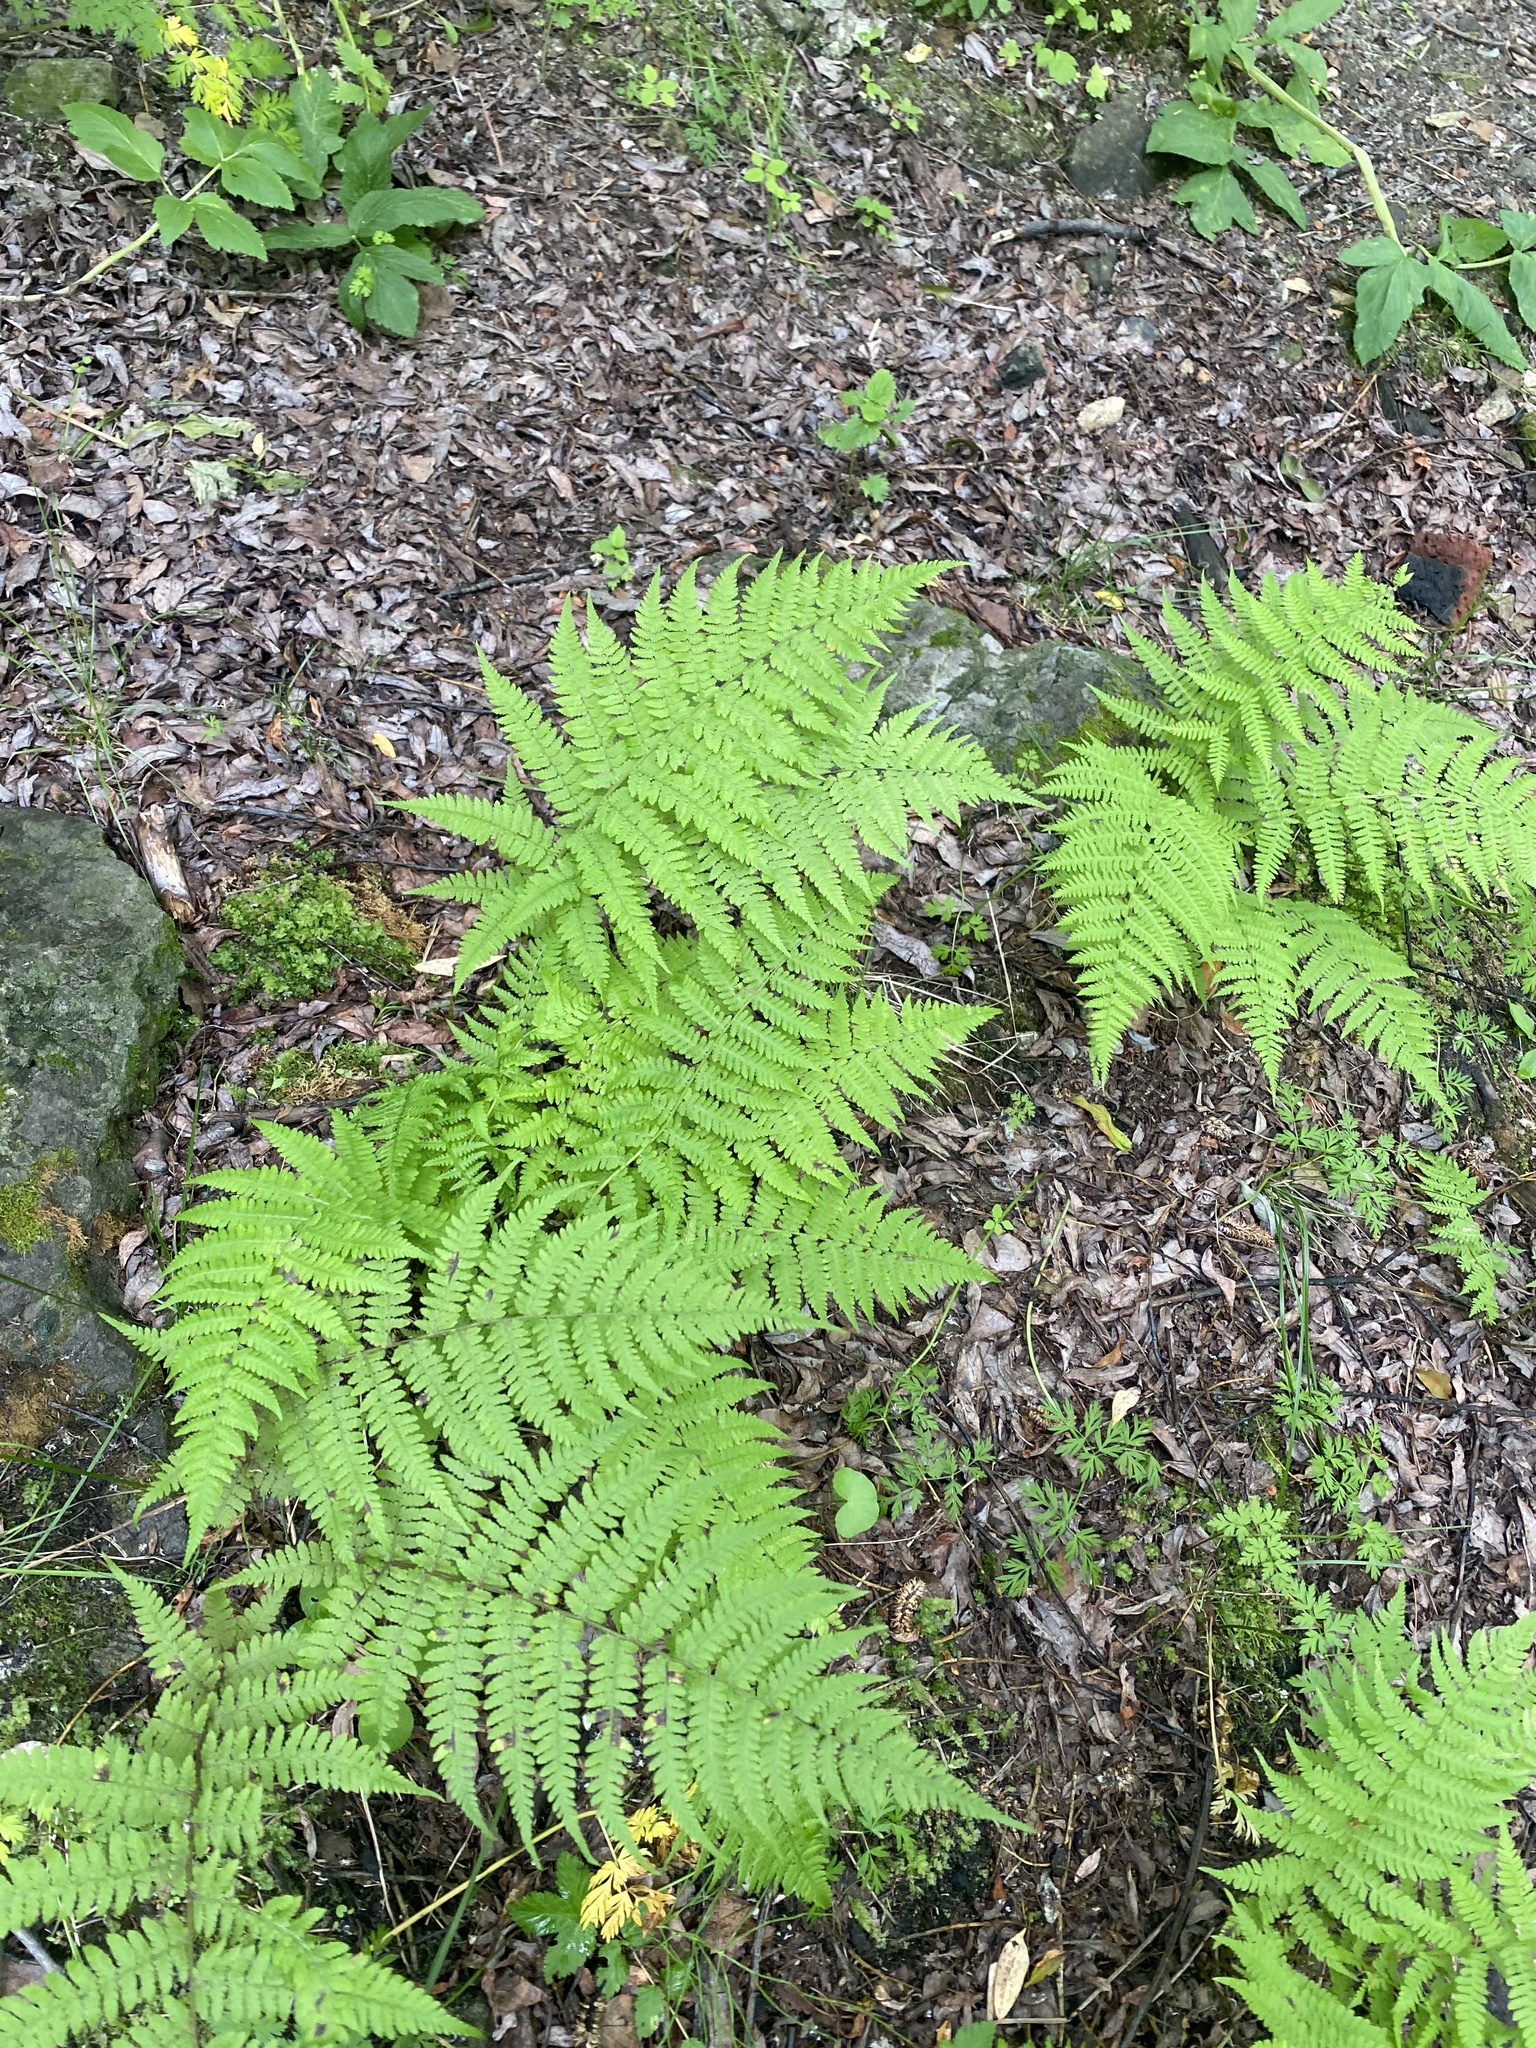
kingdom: Plantae
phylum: Tracheophyta
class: Polypodiopsida
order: Polypodiales
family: Athyriaceae
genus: Athyrium
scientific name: Athyrium filix-femina
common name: Lady fern
